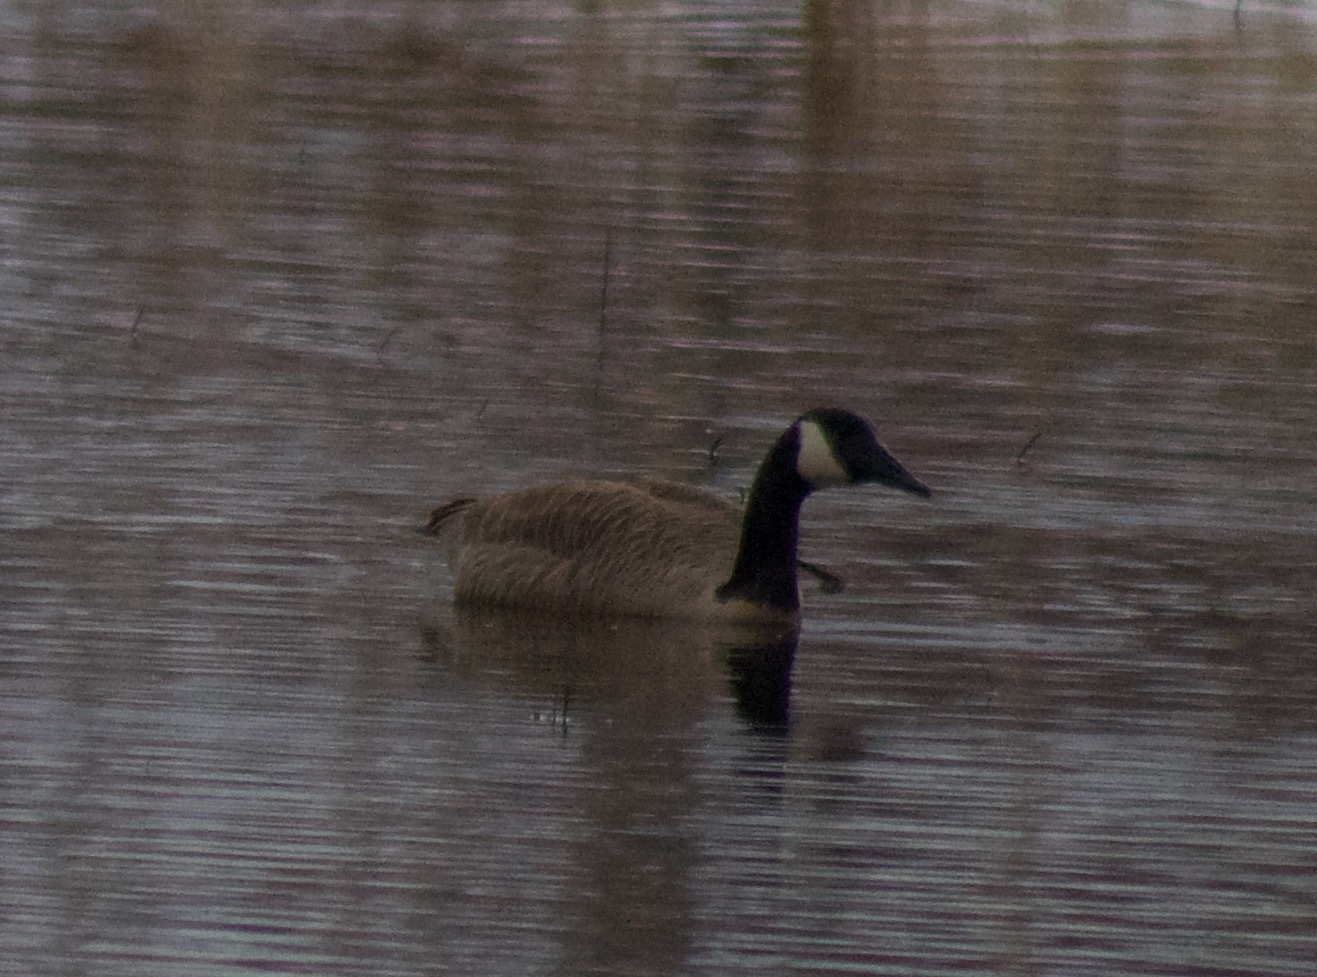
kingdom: Animalia
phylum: Chordata
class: Aves
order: Anseriformes
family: Anatidae
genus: Branta
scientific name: Branta canadensis
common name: Canada goose
